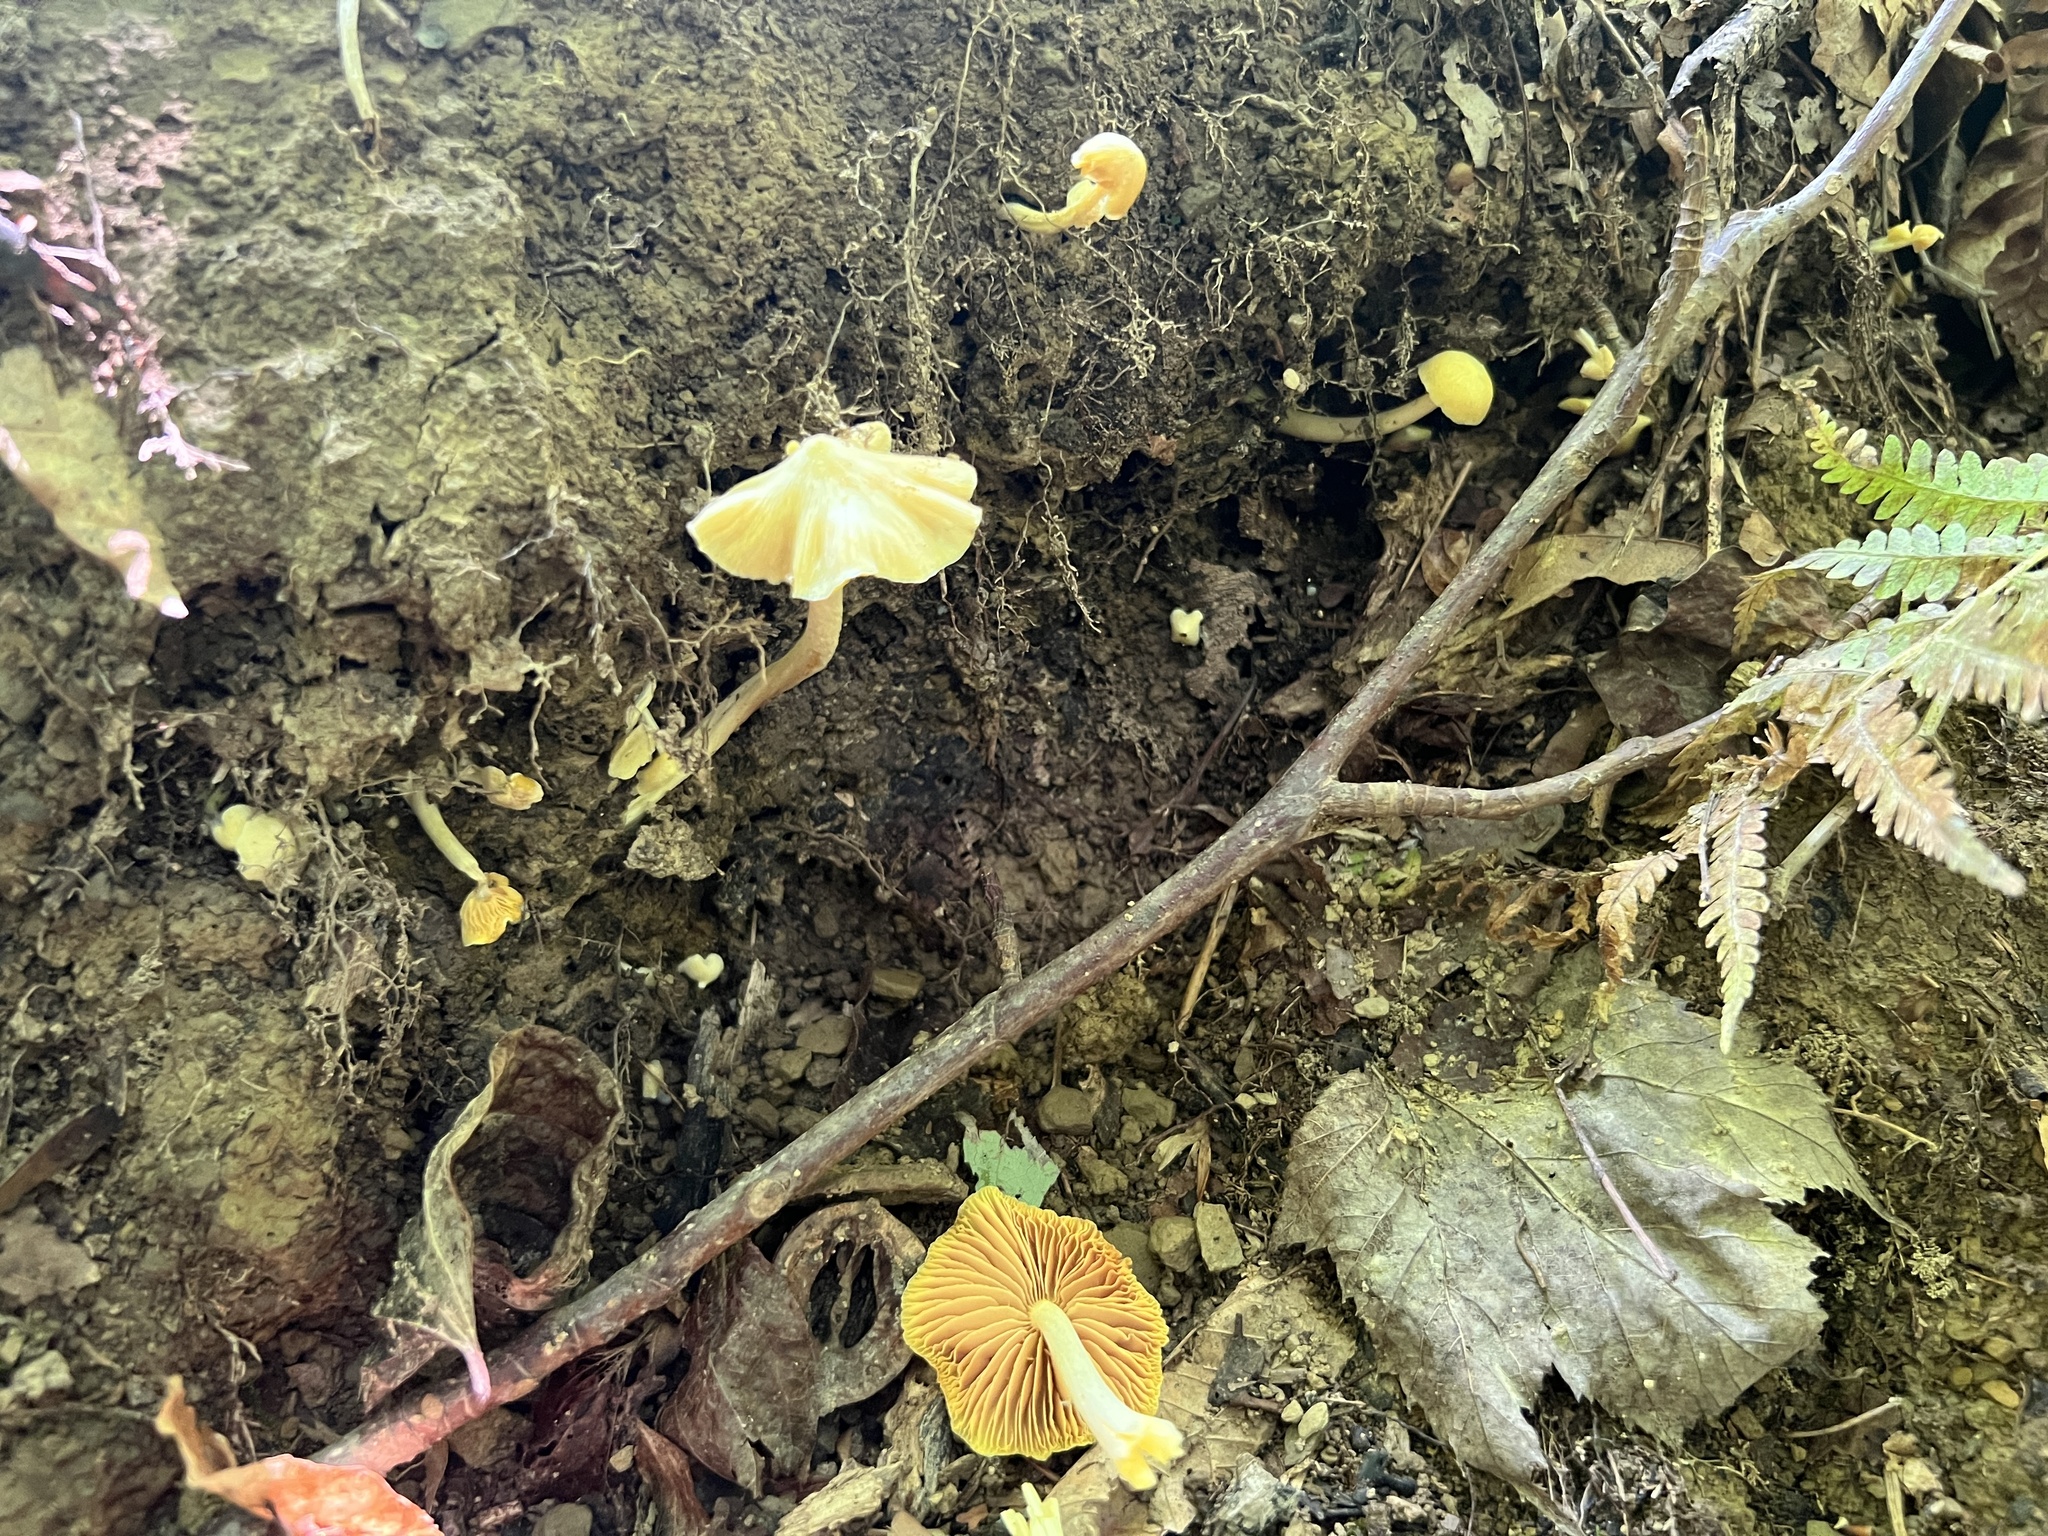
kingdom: Fungi
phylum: Basidiomycota
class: Agaricomycetes
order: Agaricales
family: Entolomataceae
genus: Entoloma
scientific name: Entoloma murrayi
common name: Yellow unicorn entoloma
